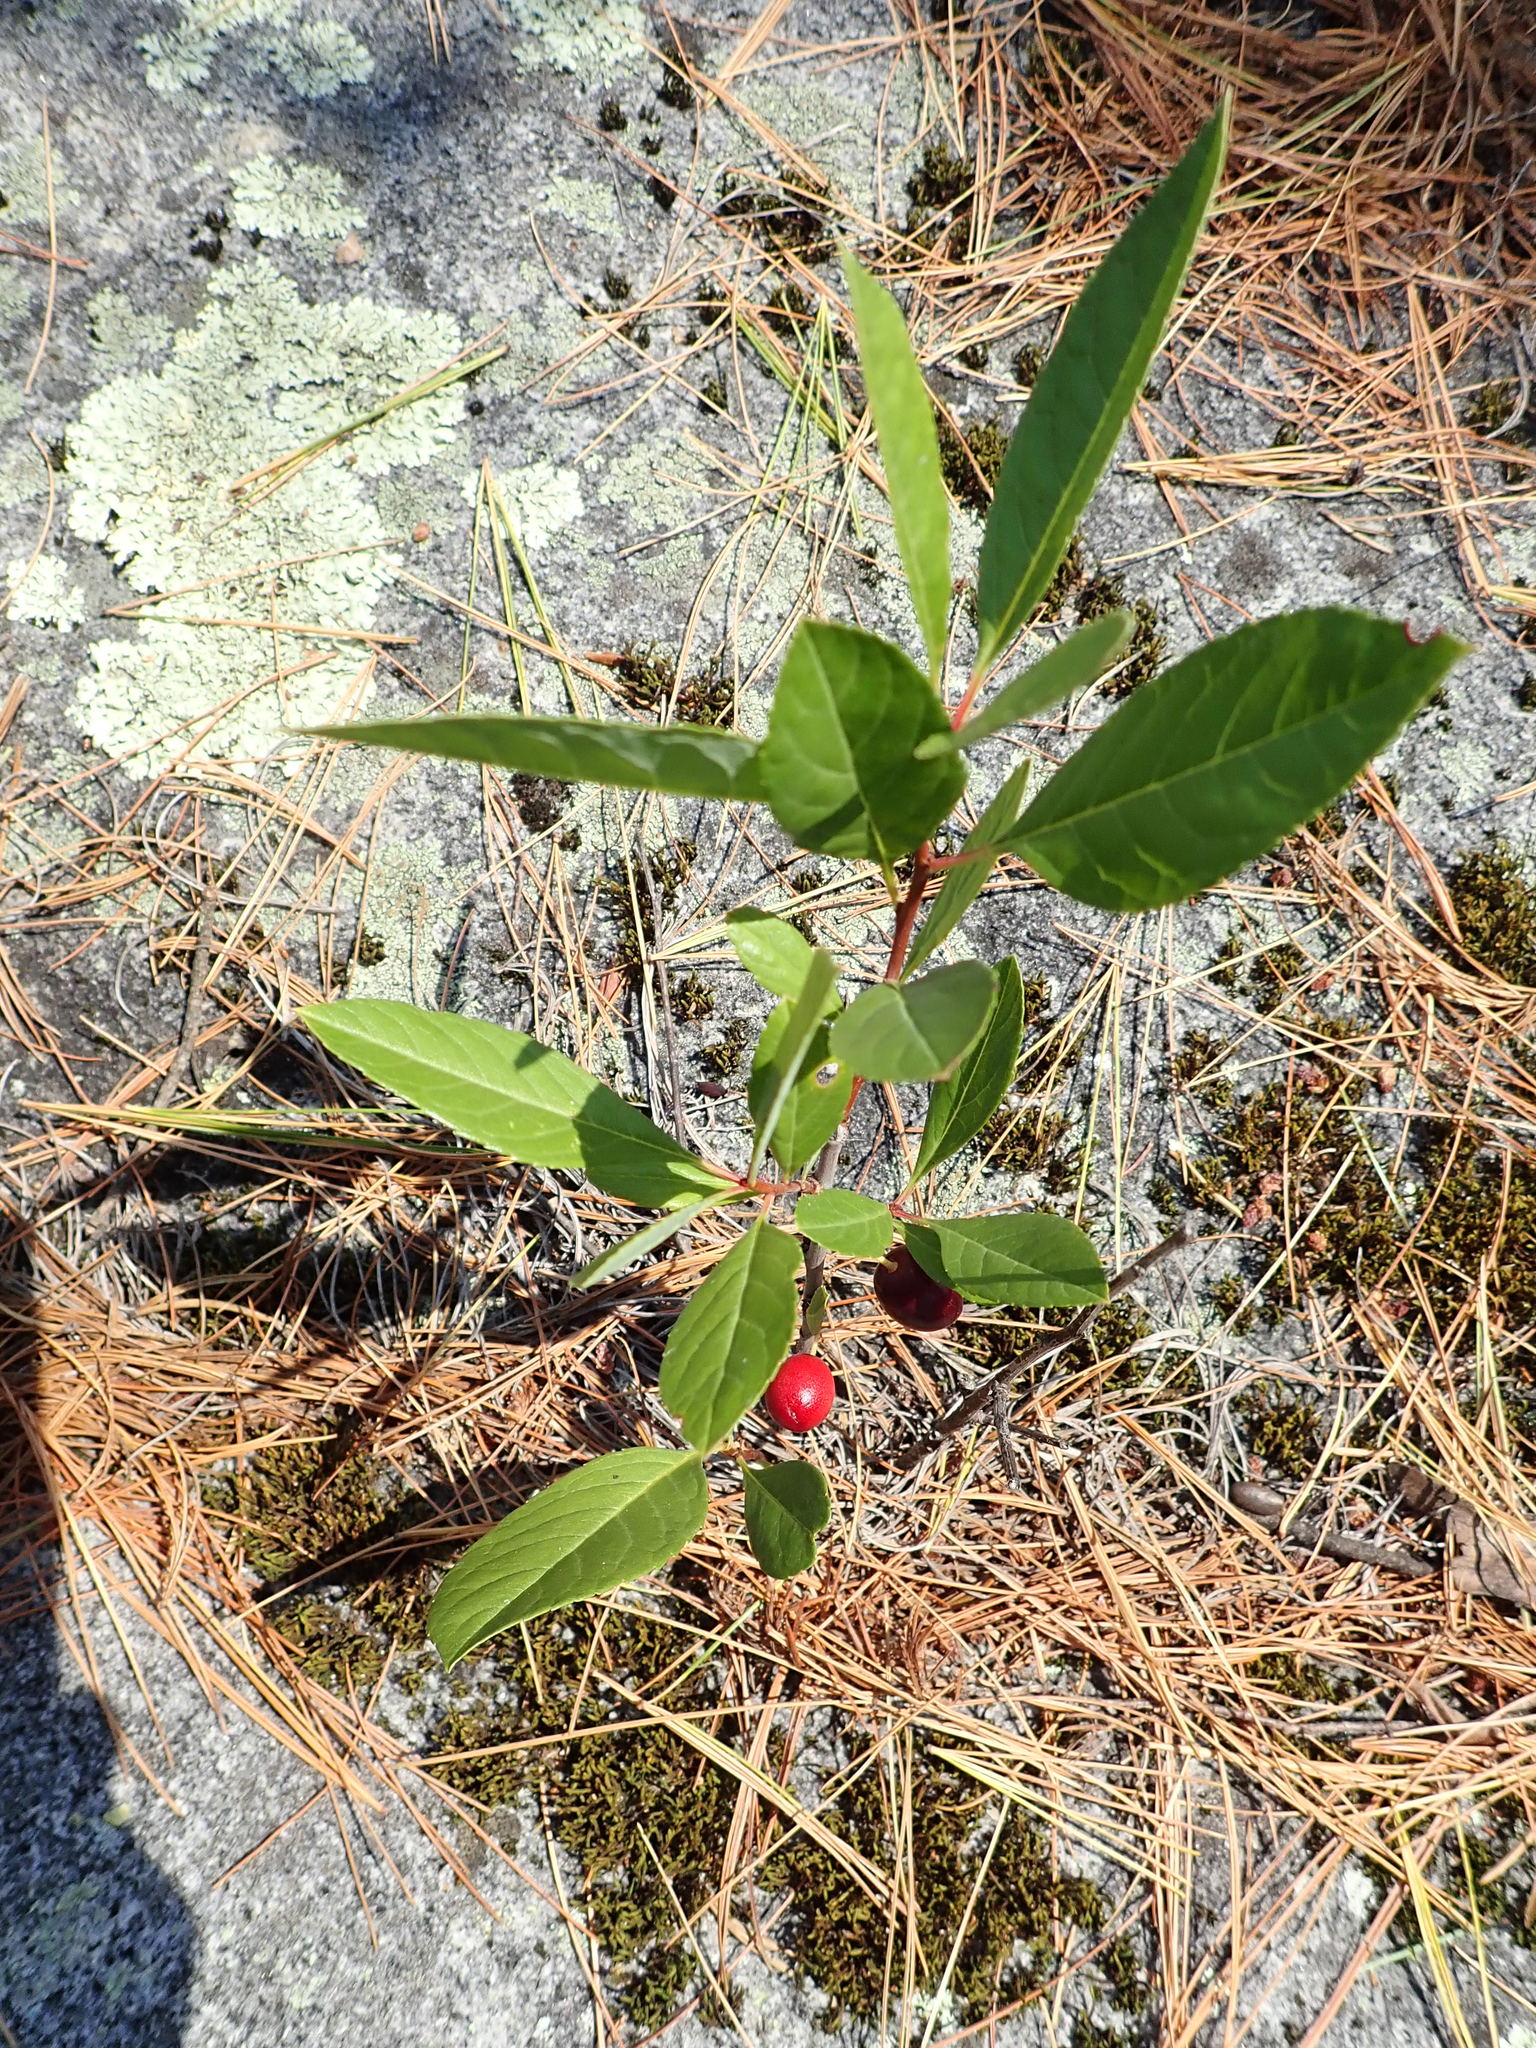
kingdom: Plantae
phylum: Tracheophyta
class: Magnoliopsida
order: Rosales
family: Rosaceae
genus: Prunus
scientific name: Prunus pumila
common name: Dwarf cherry
